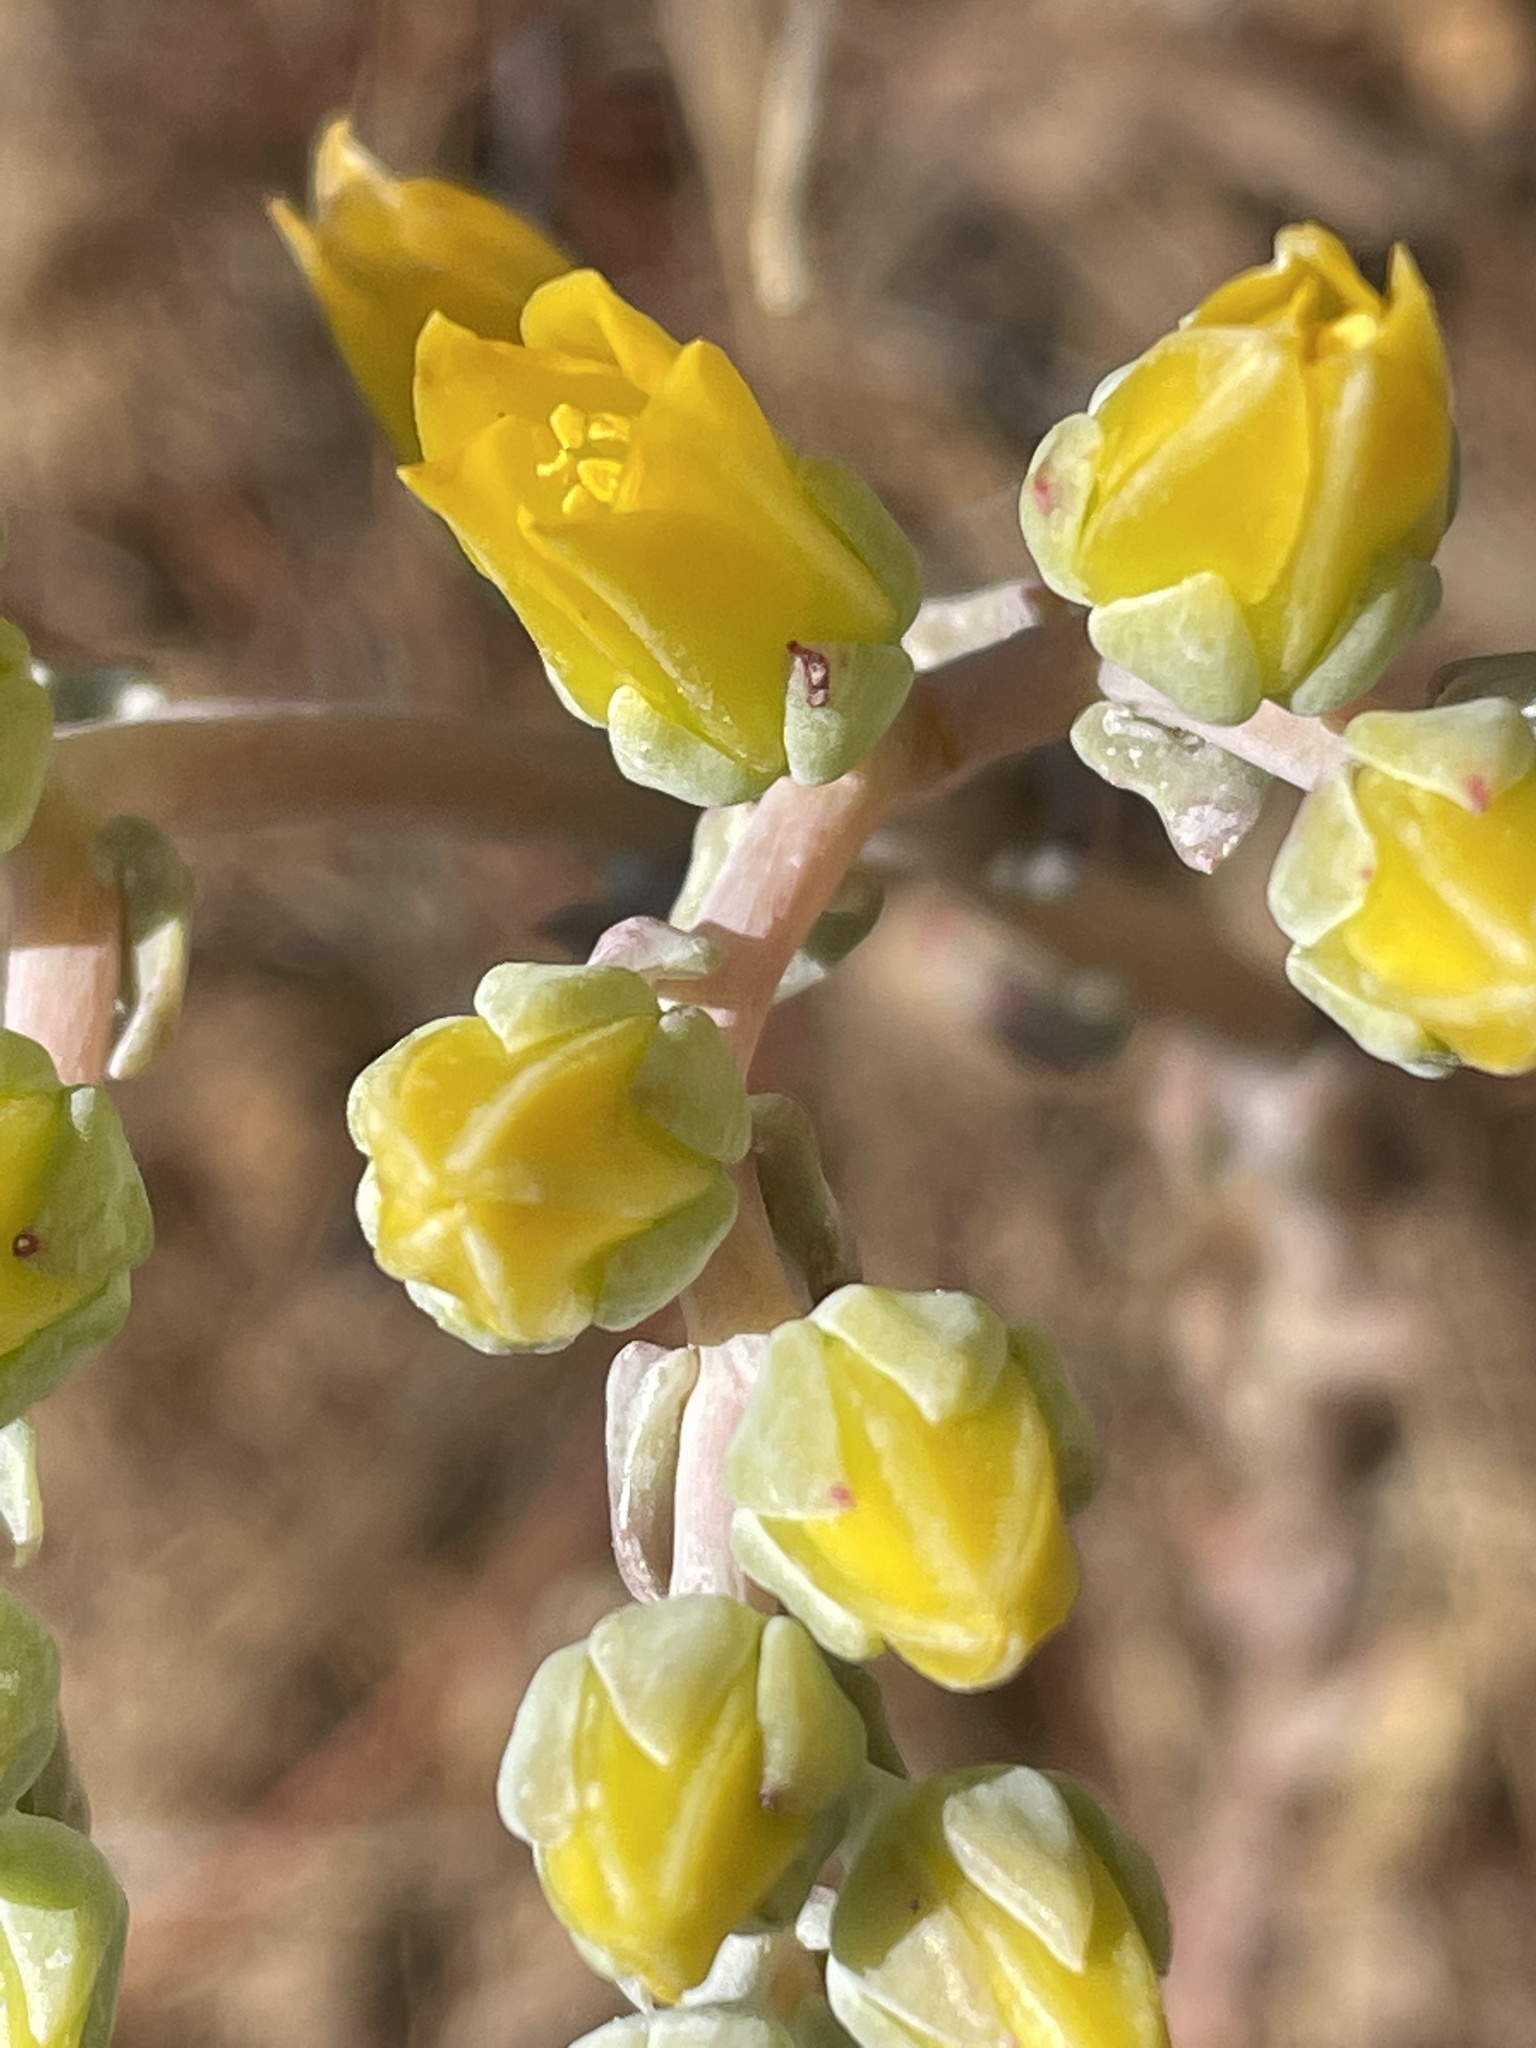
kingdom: Plantae
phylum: Tracheophyta
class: Magnoliopsida
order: Saxifragales
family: Crassulaceae
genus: Dudleya
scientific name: Dudleya caespitosa
